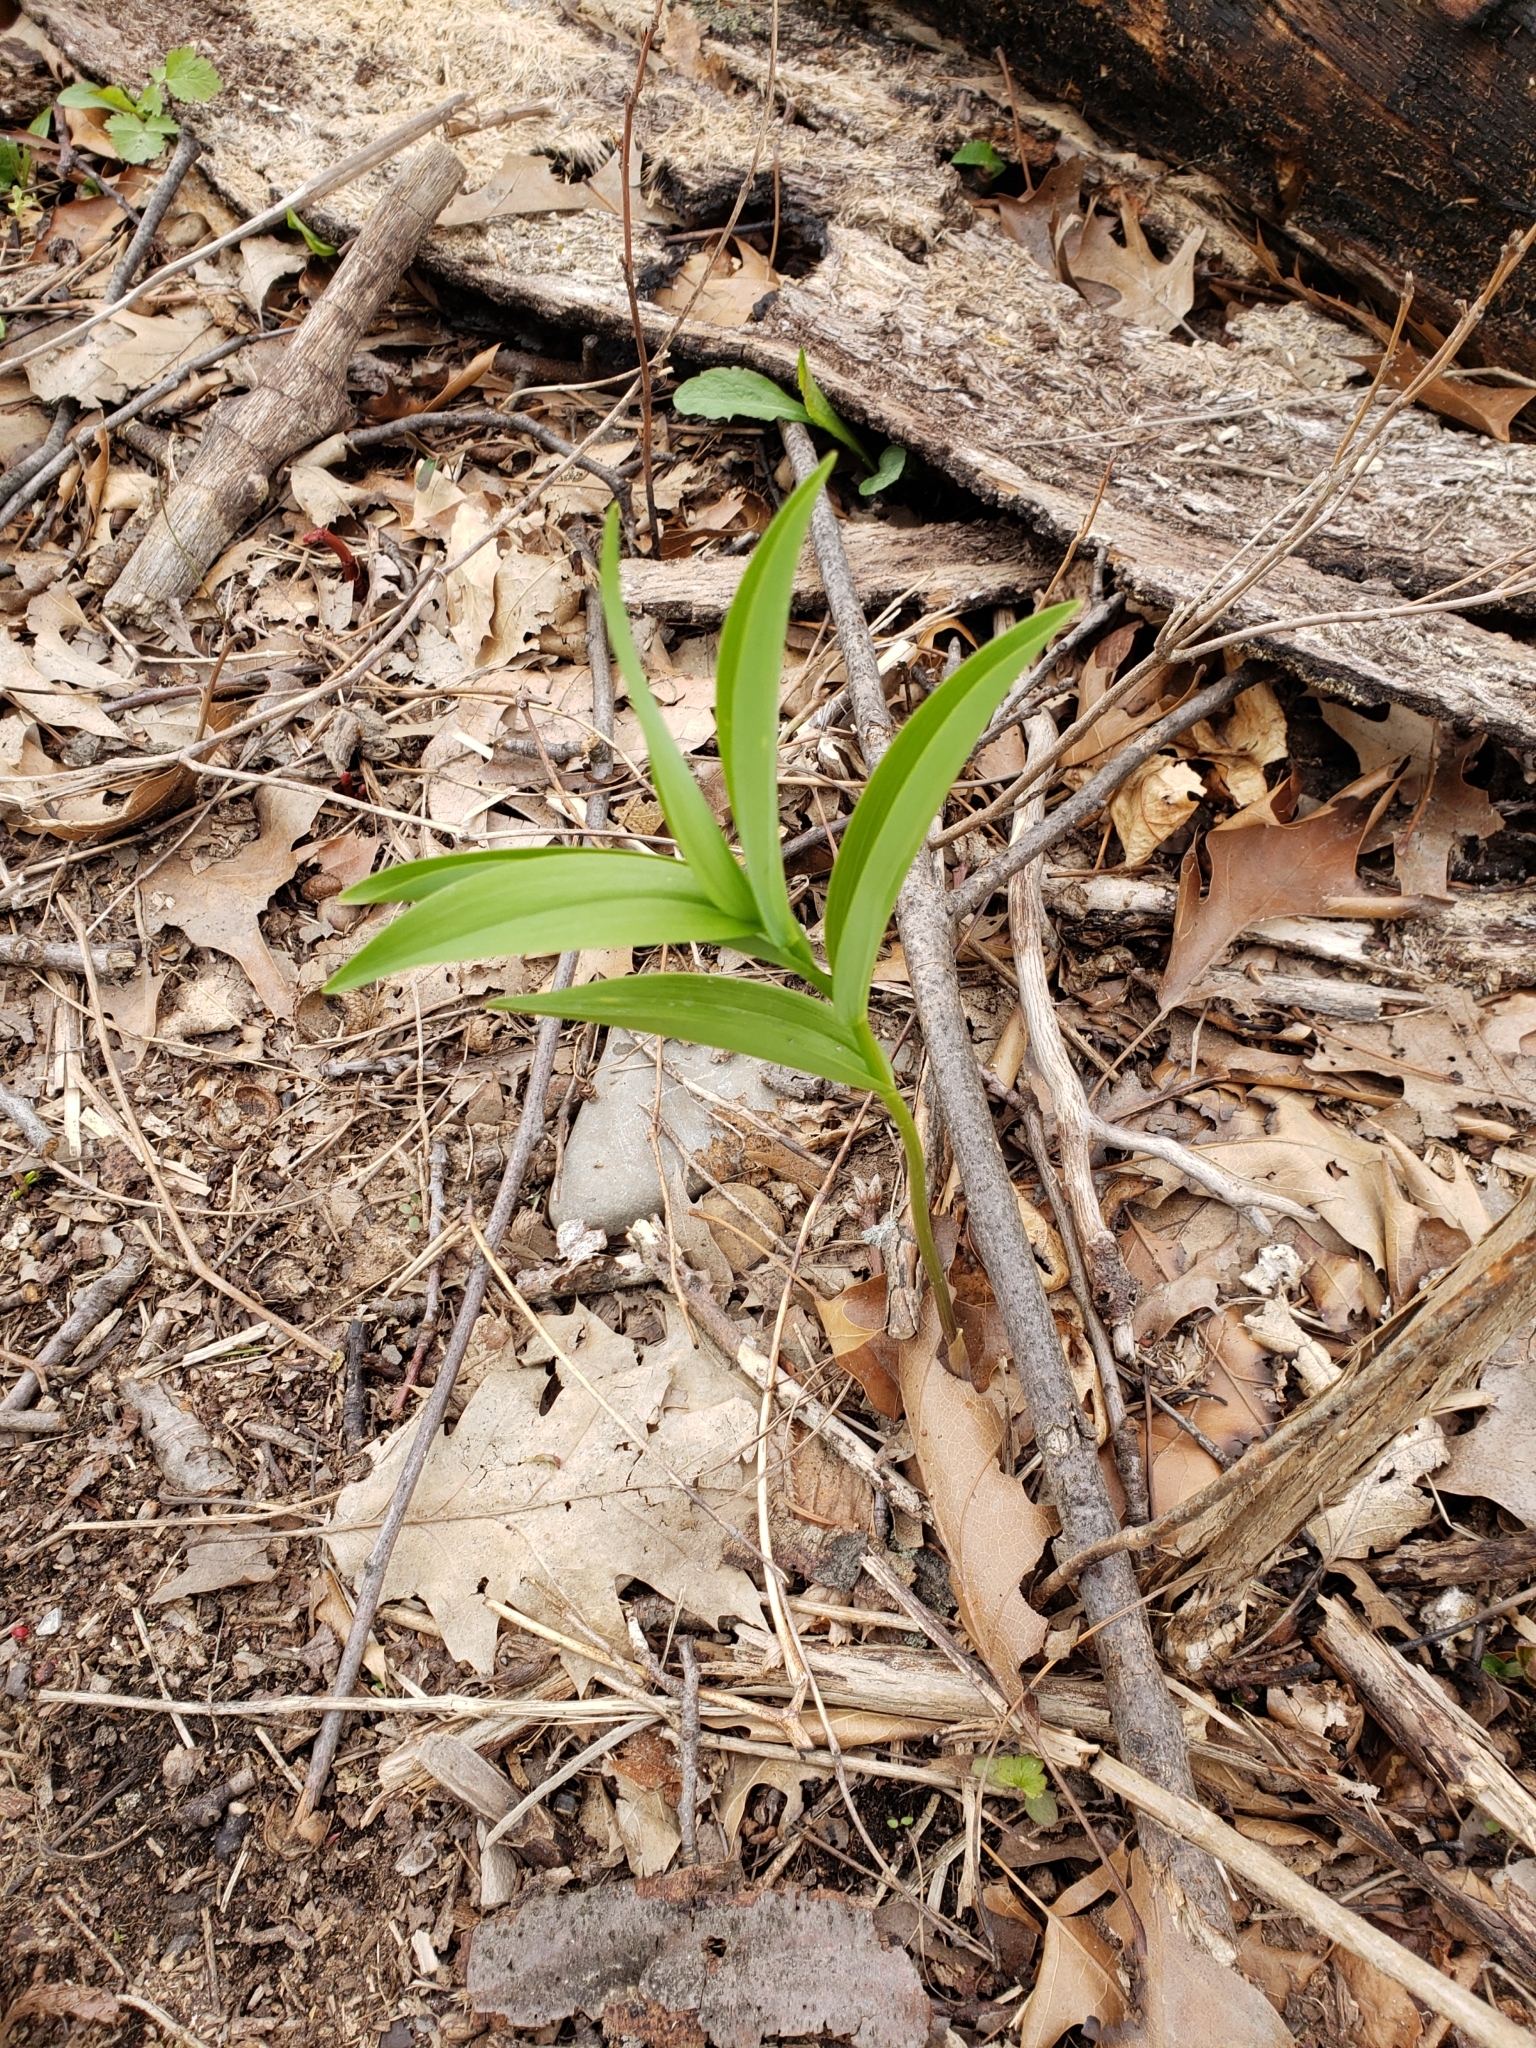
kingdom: Plantae
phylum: Tracheophyta
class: Liliopsida
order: Asparagales
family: Asparagaceae
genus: Maianthemum
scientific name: Maianthemum stellatum
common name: Little false solomon's seal
